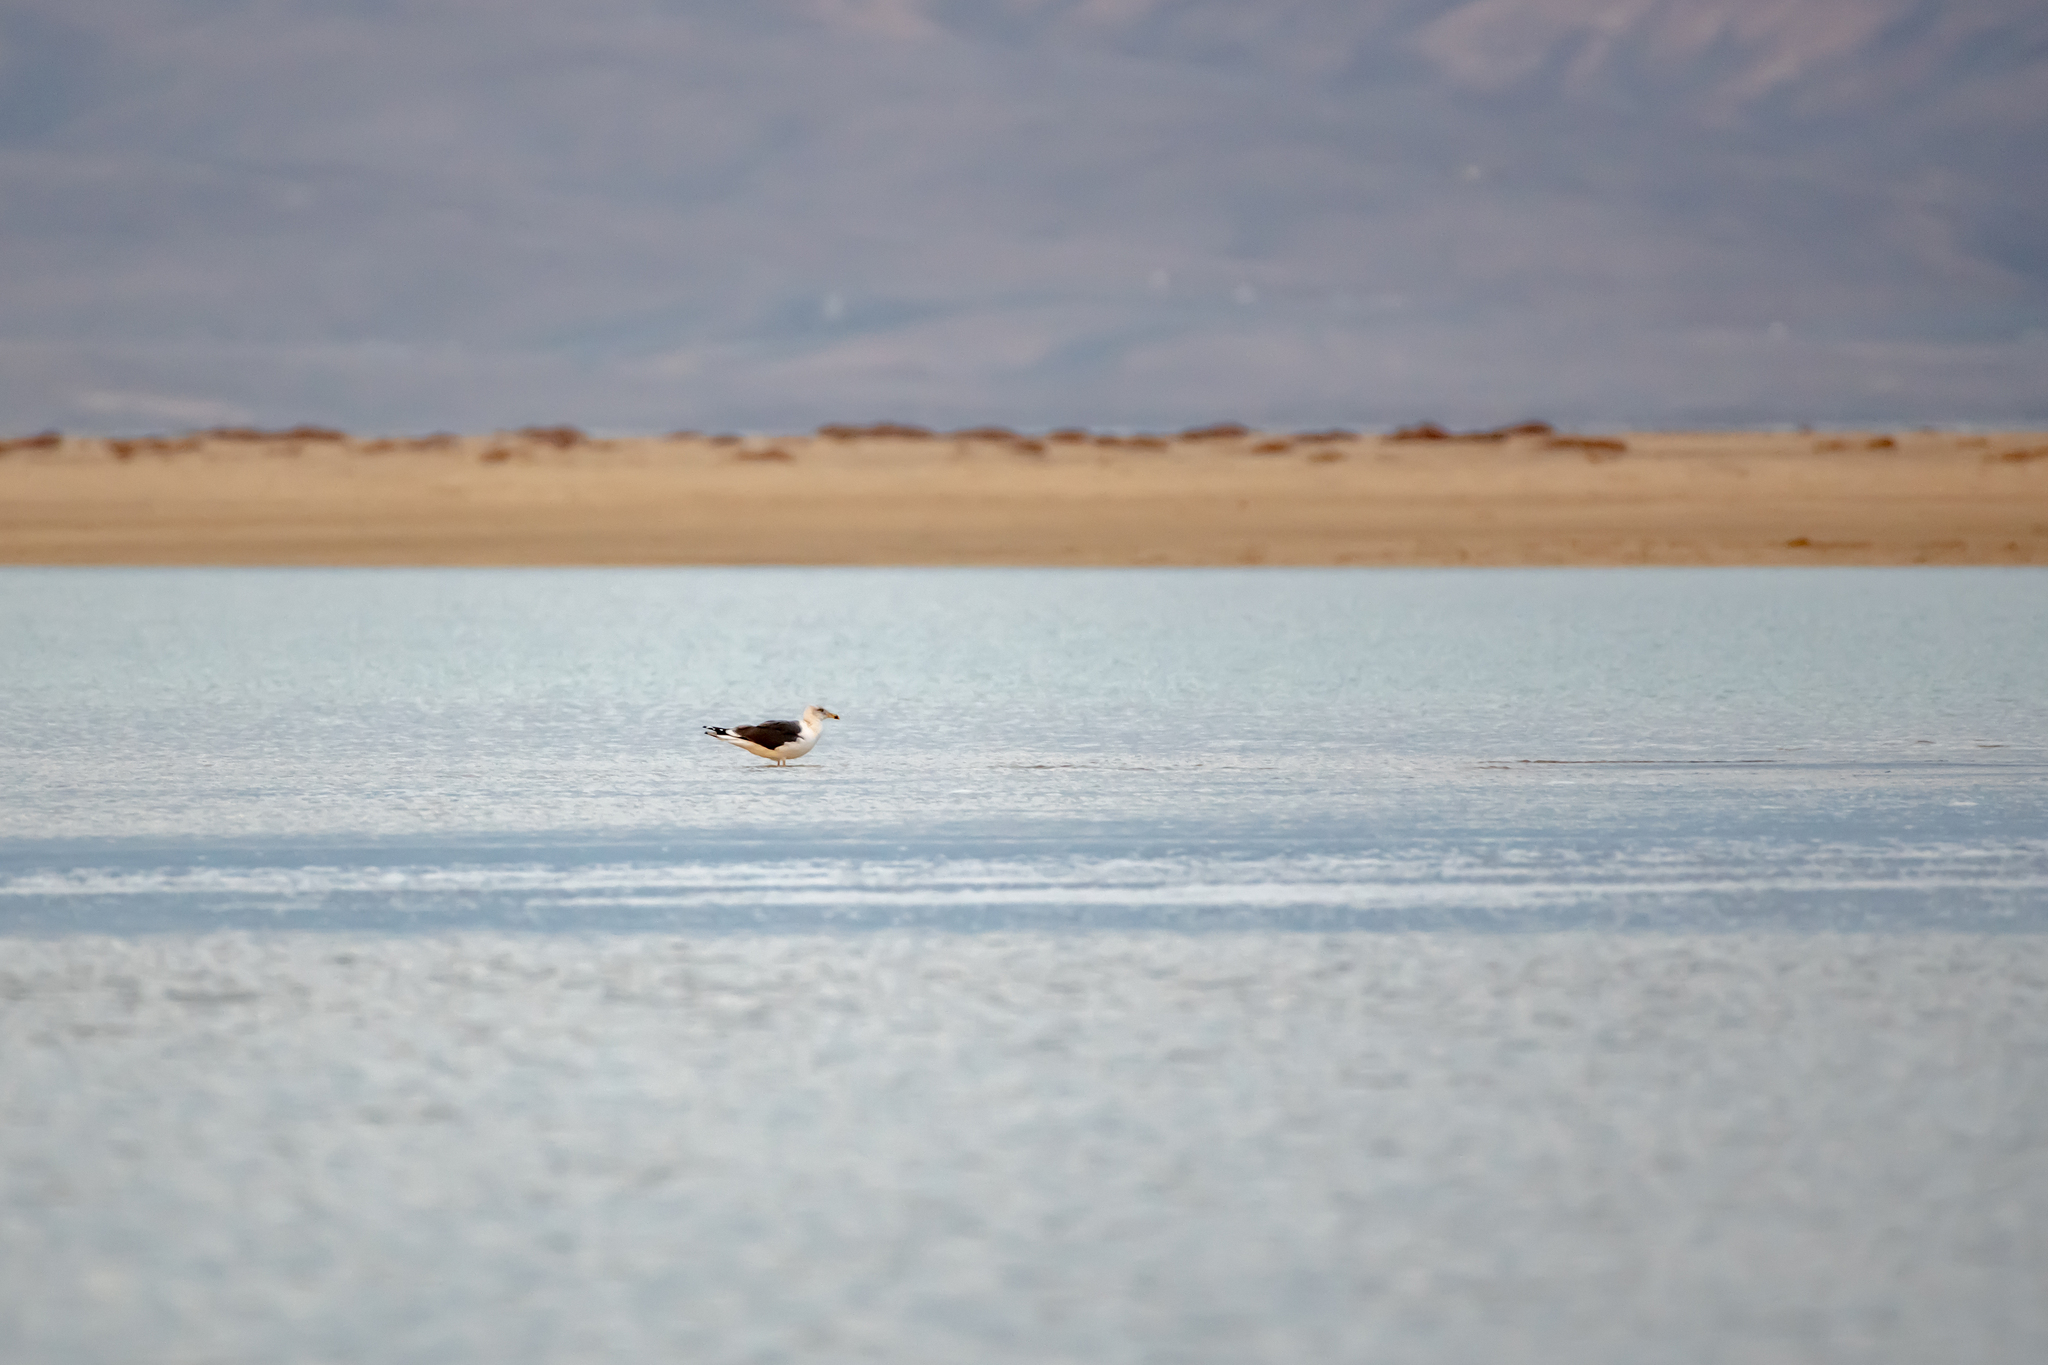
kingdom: Animalia
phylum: Chordata
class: Aves
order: Charadriiformes
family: Laridae
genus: Larus
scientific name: Larus fuscus
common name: Lesser black-backed gull
